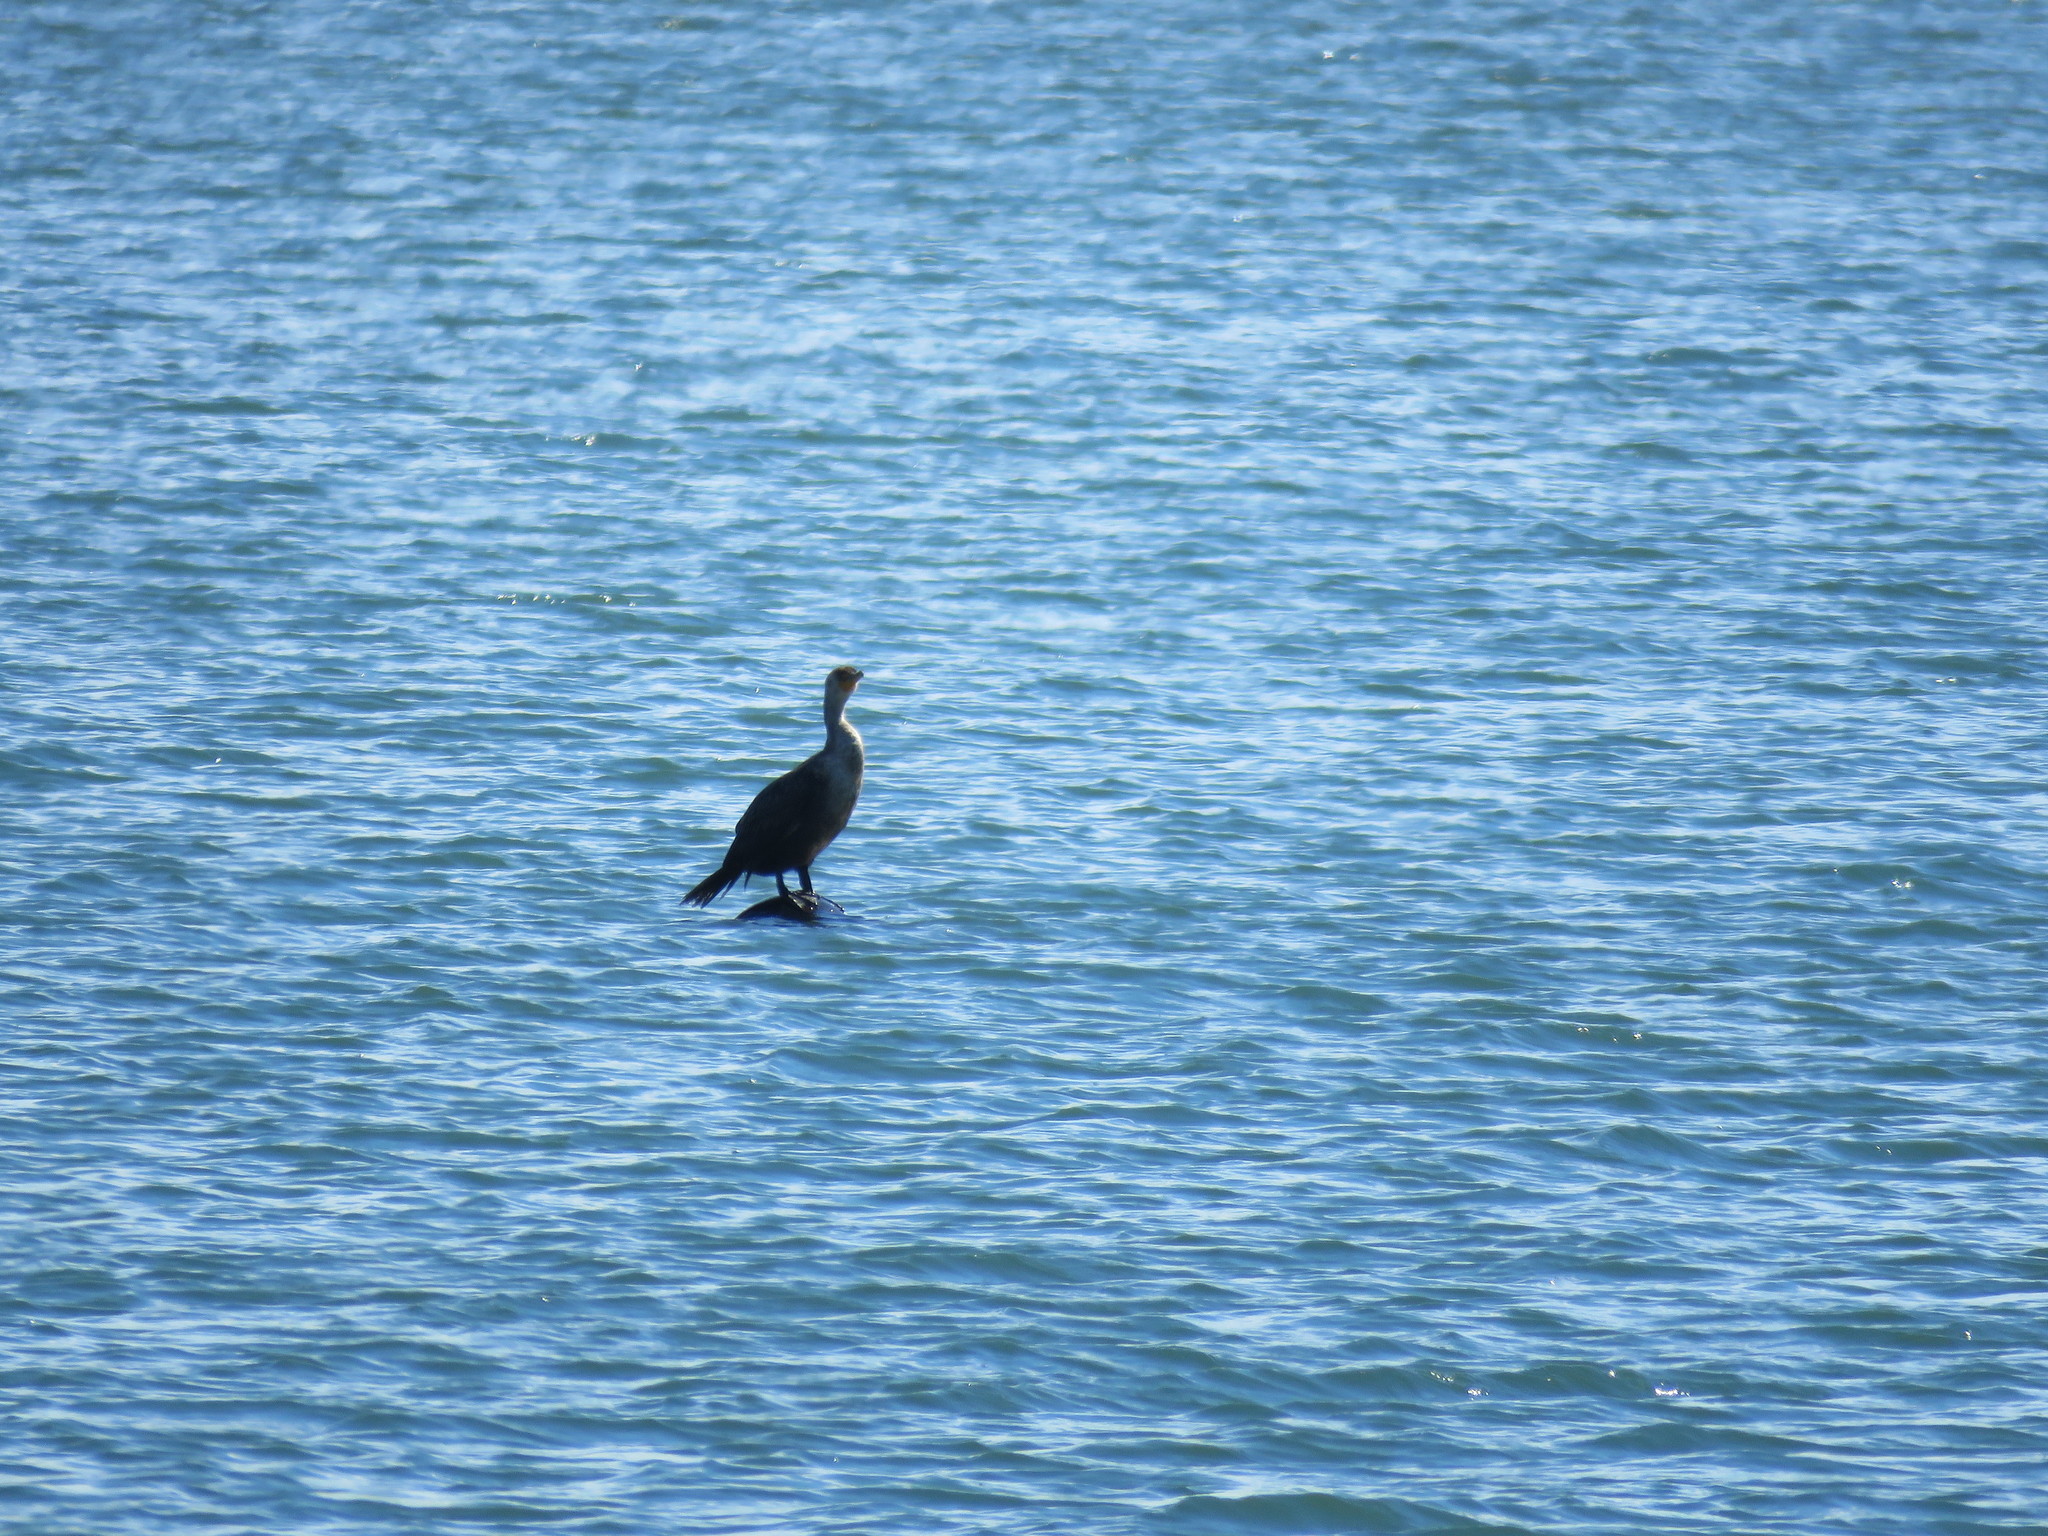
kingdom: Animalia
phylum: Chordata
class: Aves
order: Suliformes
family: Phalacrocoracidae
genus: Phalacrocorax
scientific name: Phalacrocorax auritus
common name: Double-crested cormorant
